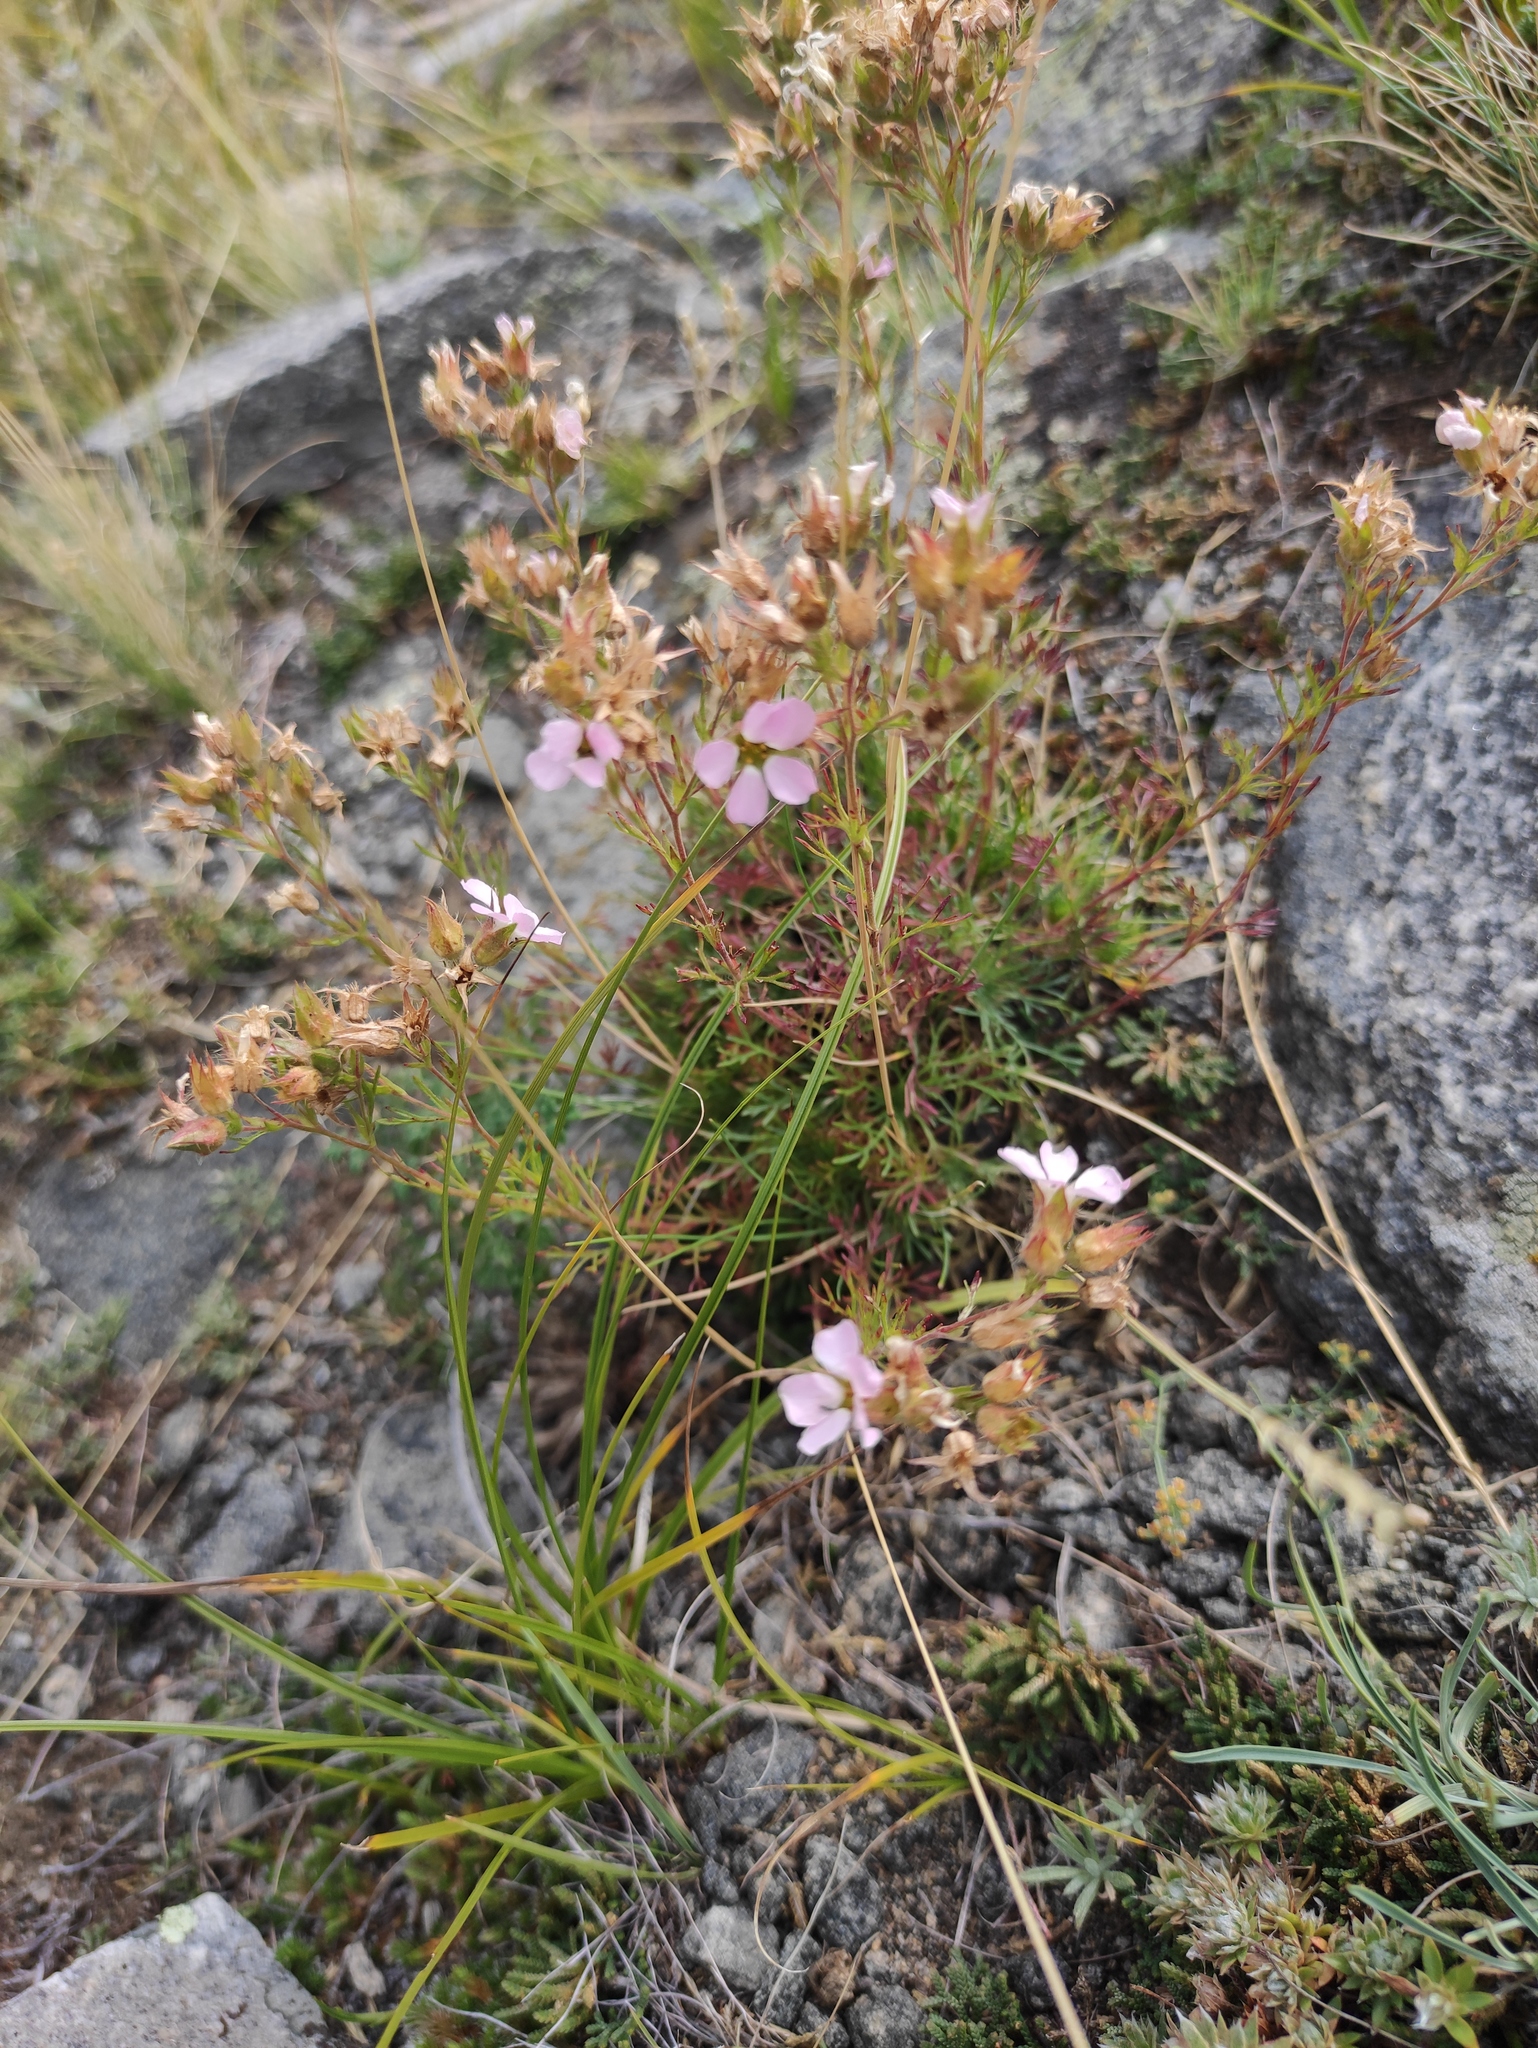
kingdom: Plantae
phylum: Tracheophyta
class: Magnoliopsida
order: Rosales
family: Rosaceae
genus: Chamaerhodos
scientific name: Chamaerhodos grandiflora
